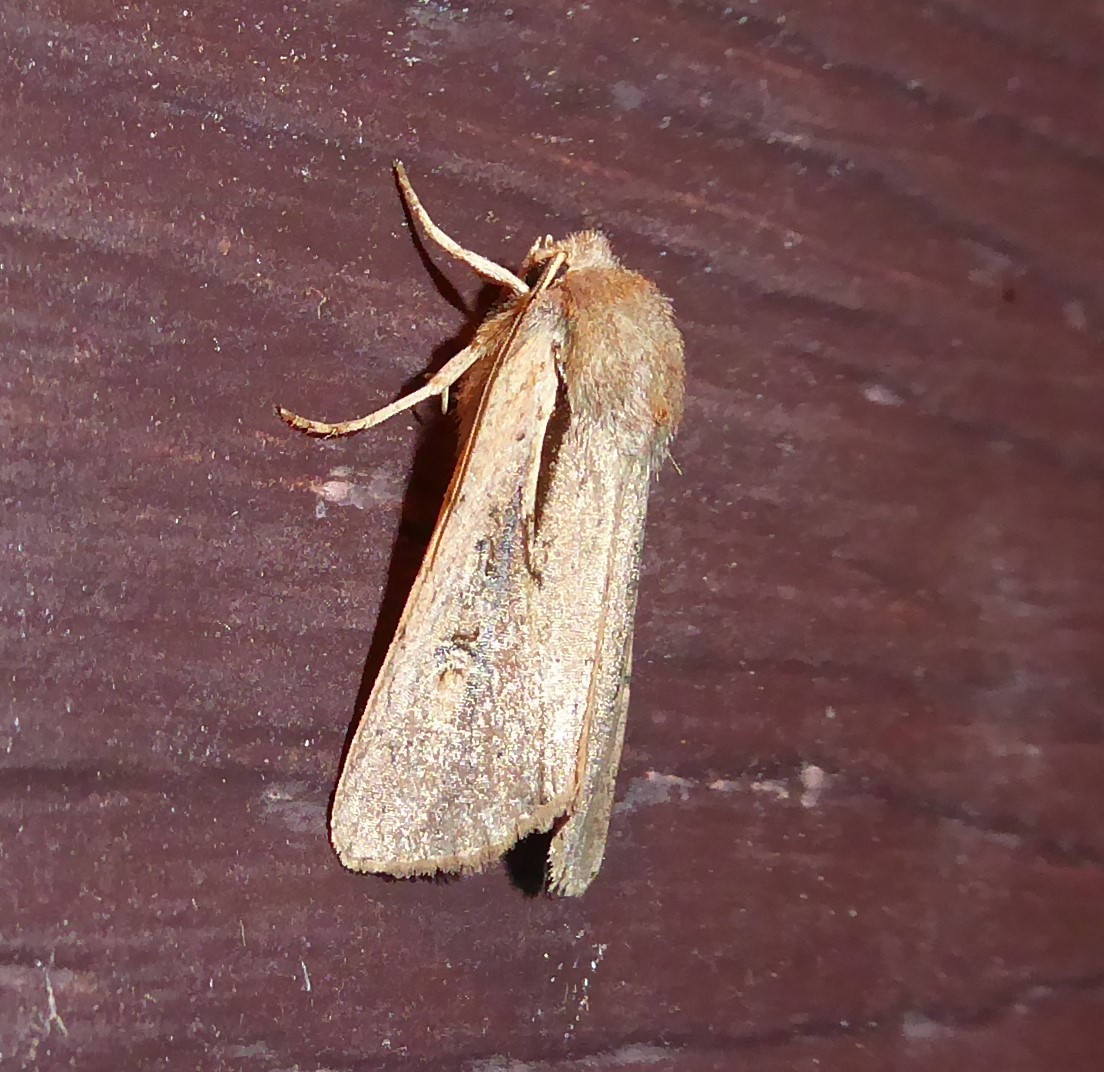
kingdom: Animalia
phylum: Arthropoda
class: Insecta
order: Lepidoptera
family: Noctuidae
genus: Ichneutica
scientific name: Ichneutica atristriga
